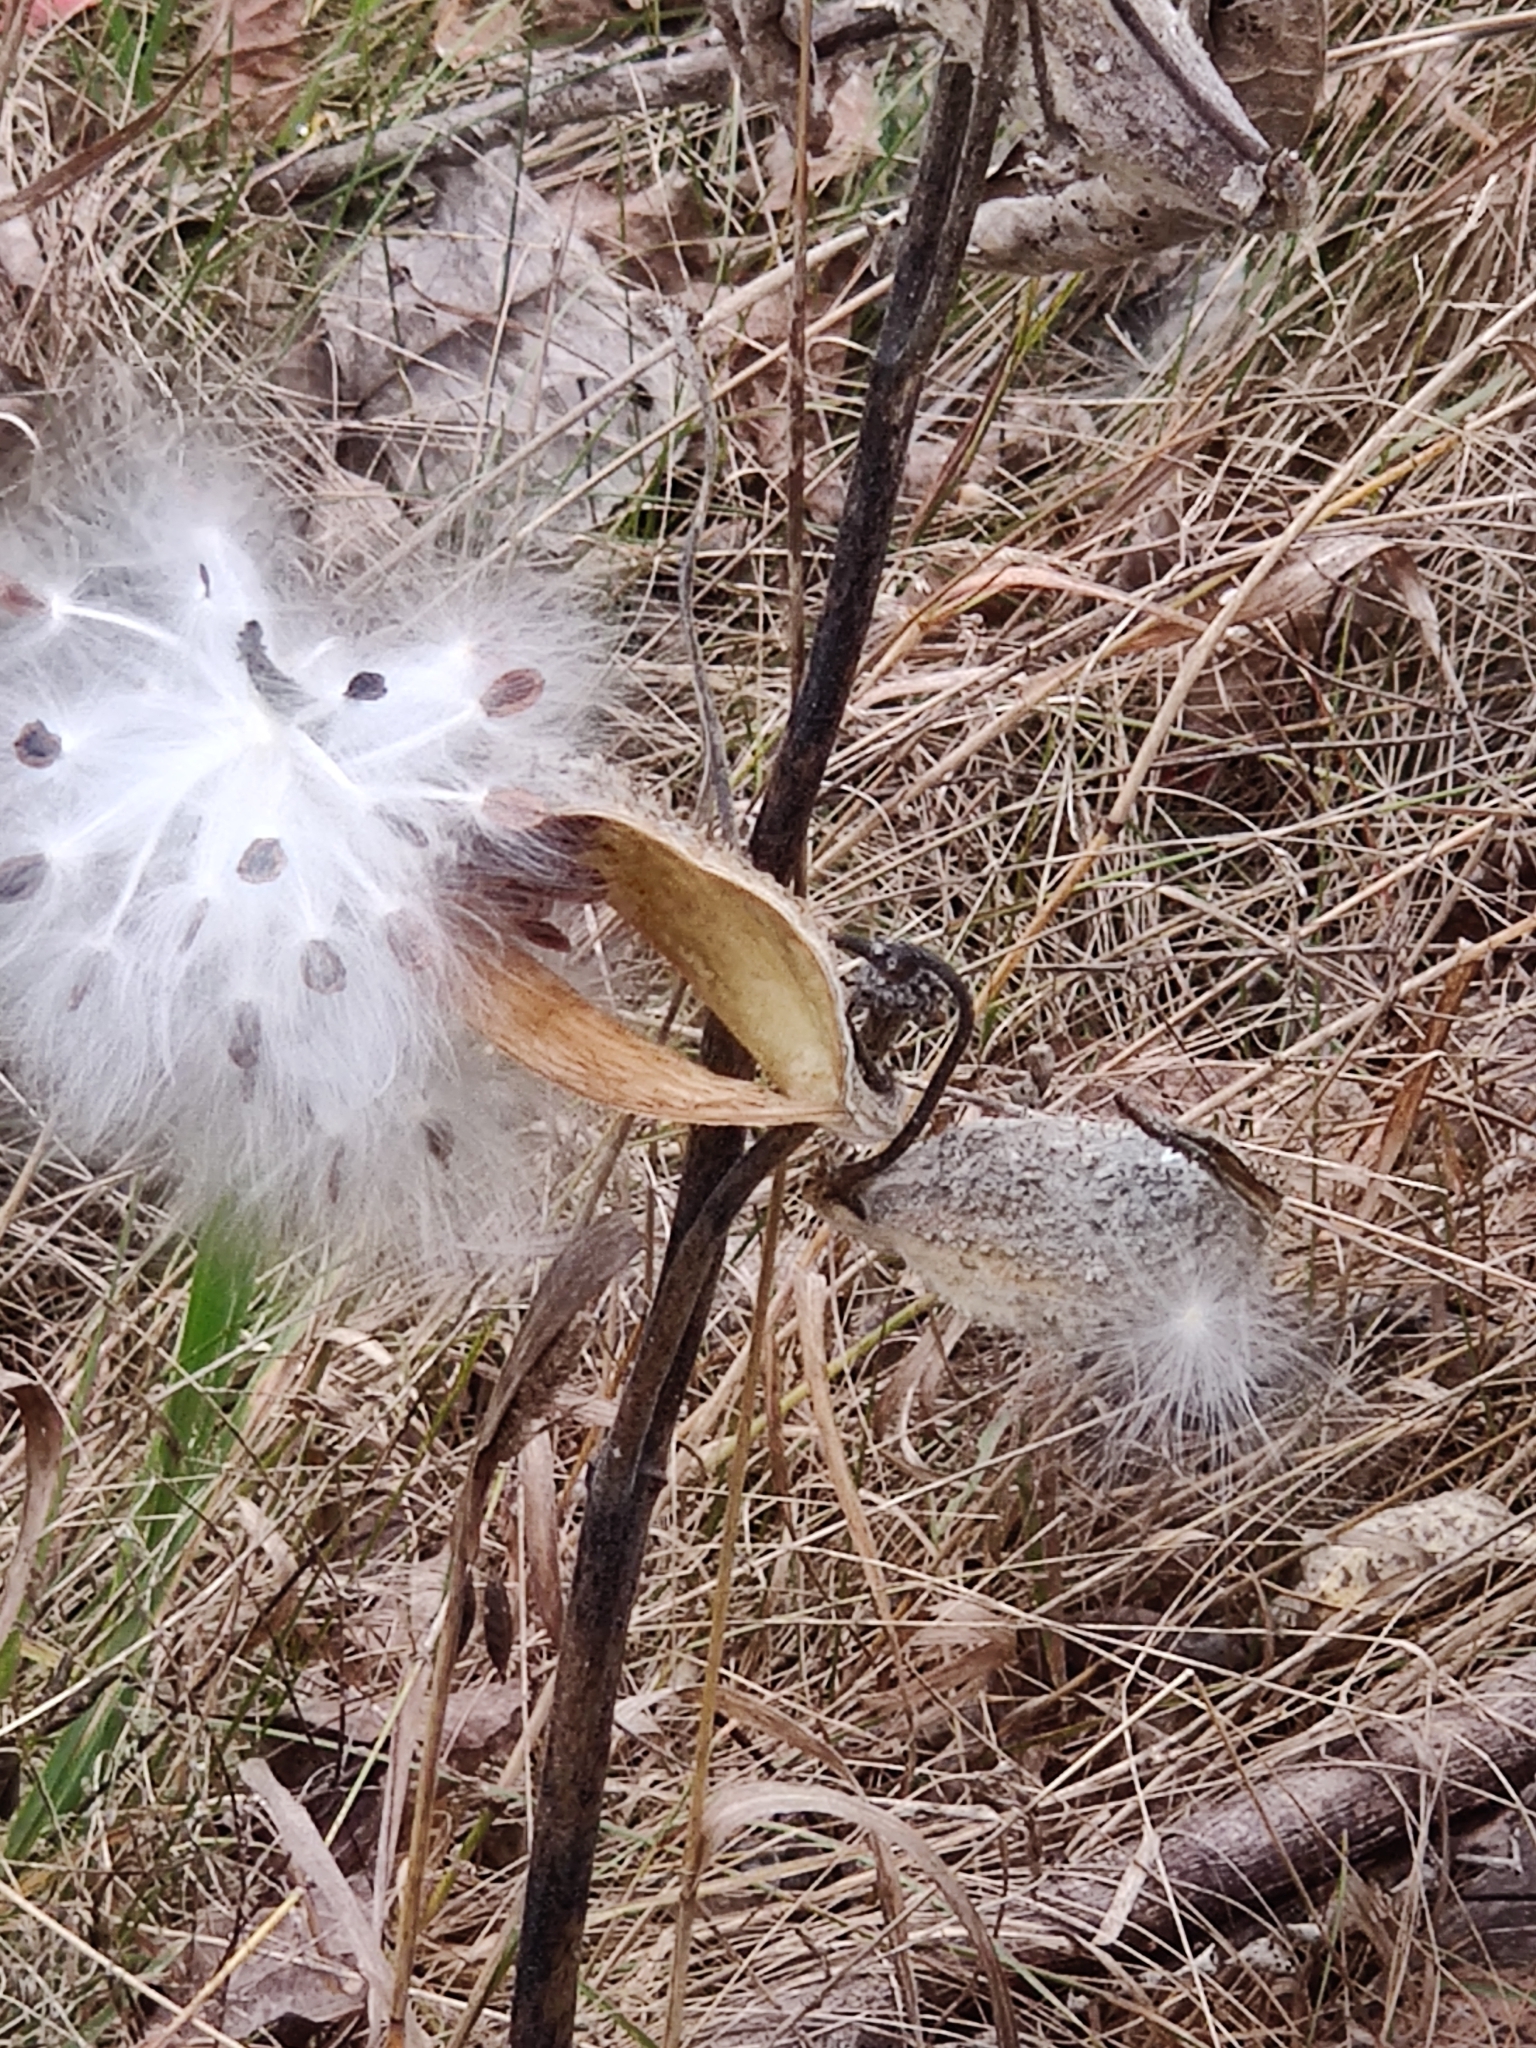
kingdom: Plantae
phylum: Tracheophyta
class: Magnoliopsida
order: Gentianales
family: Apocynaceae
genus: Asclepias
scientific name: Asclepias syriaca
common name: Common milkweed
